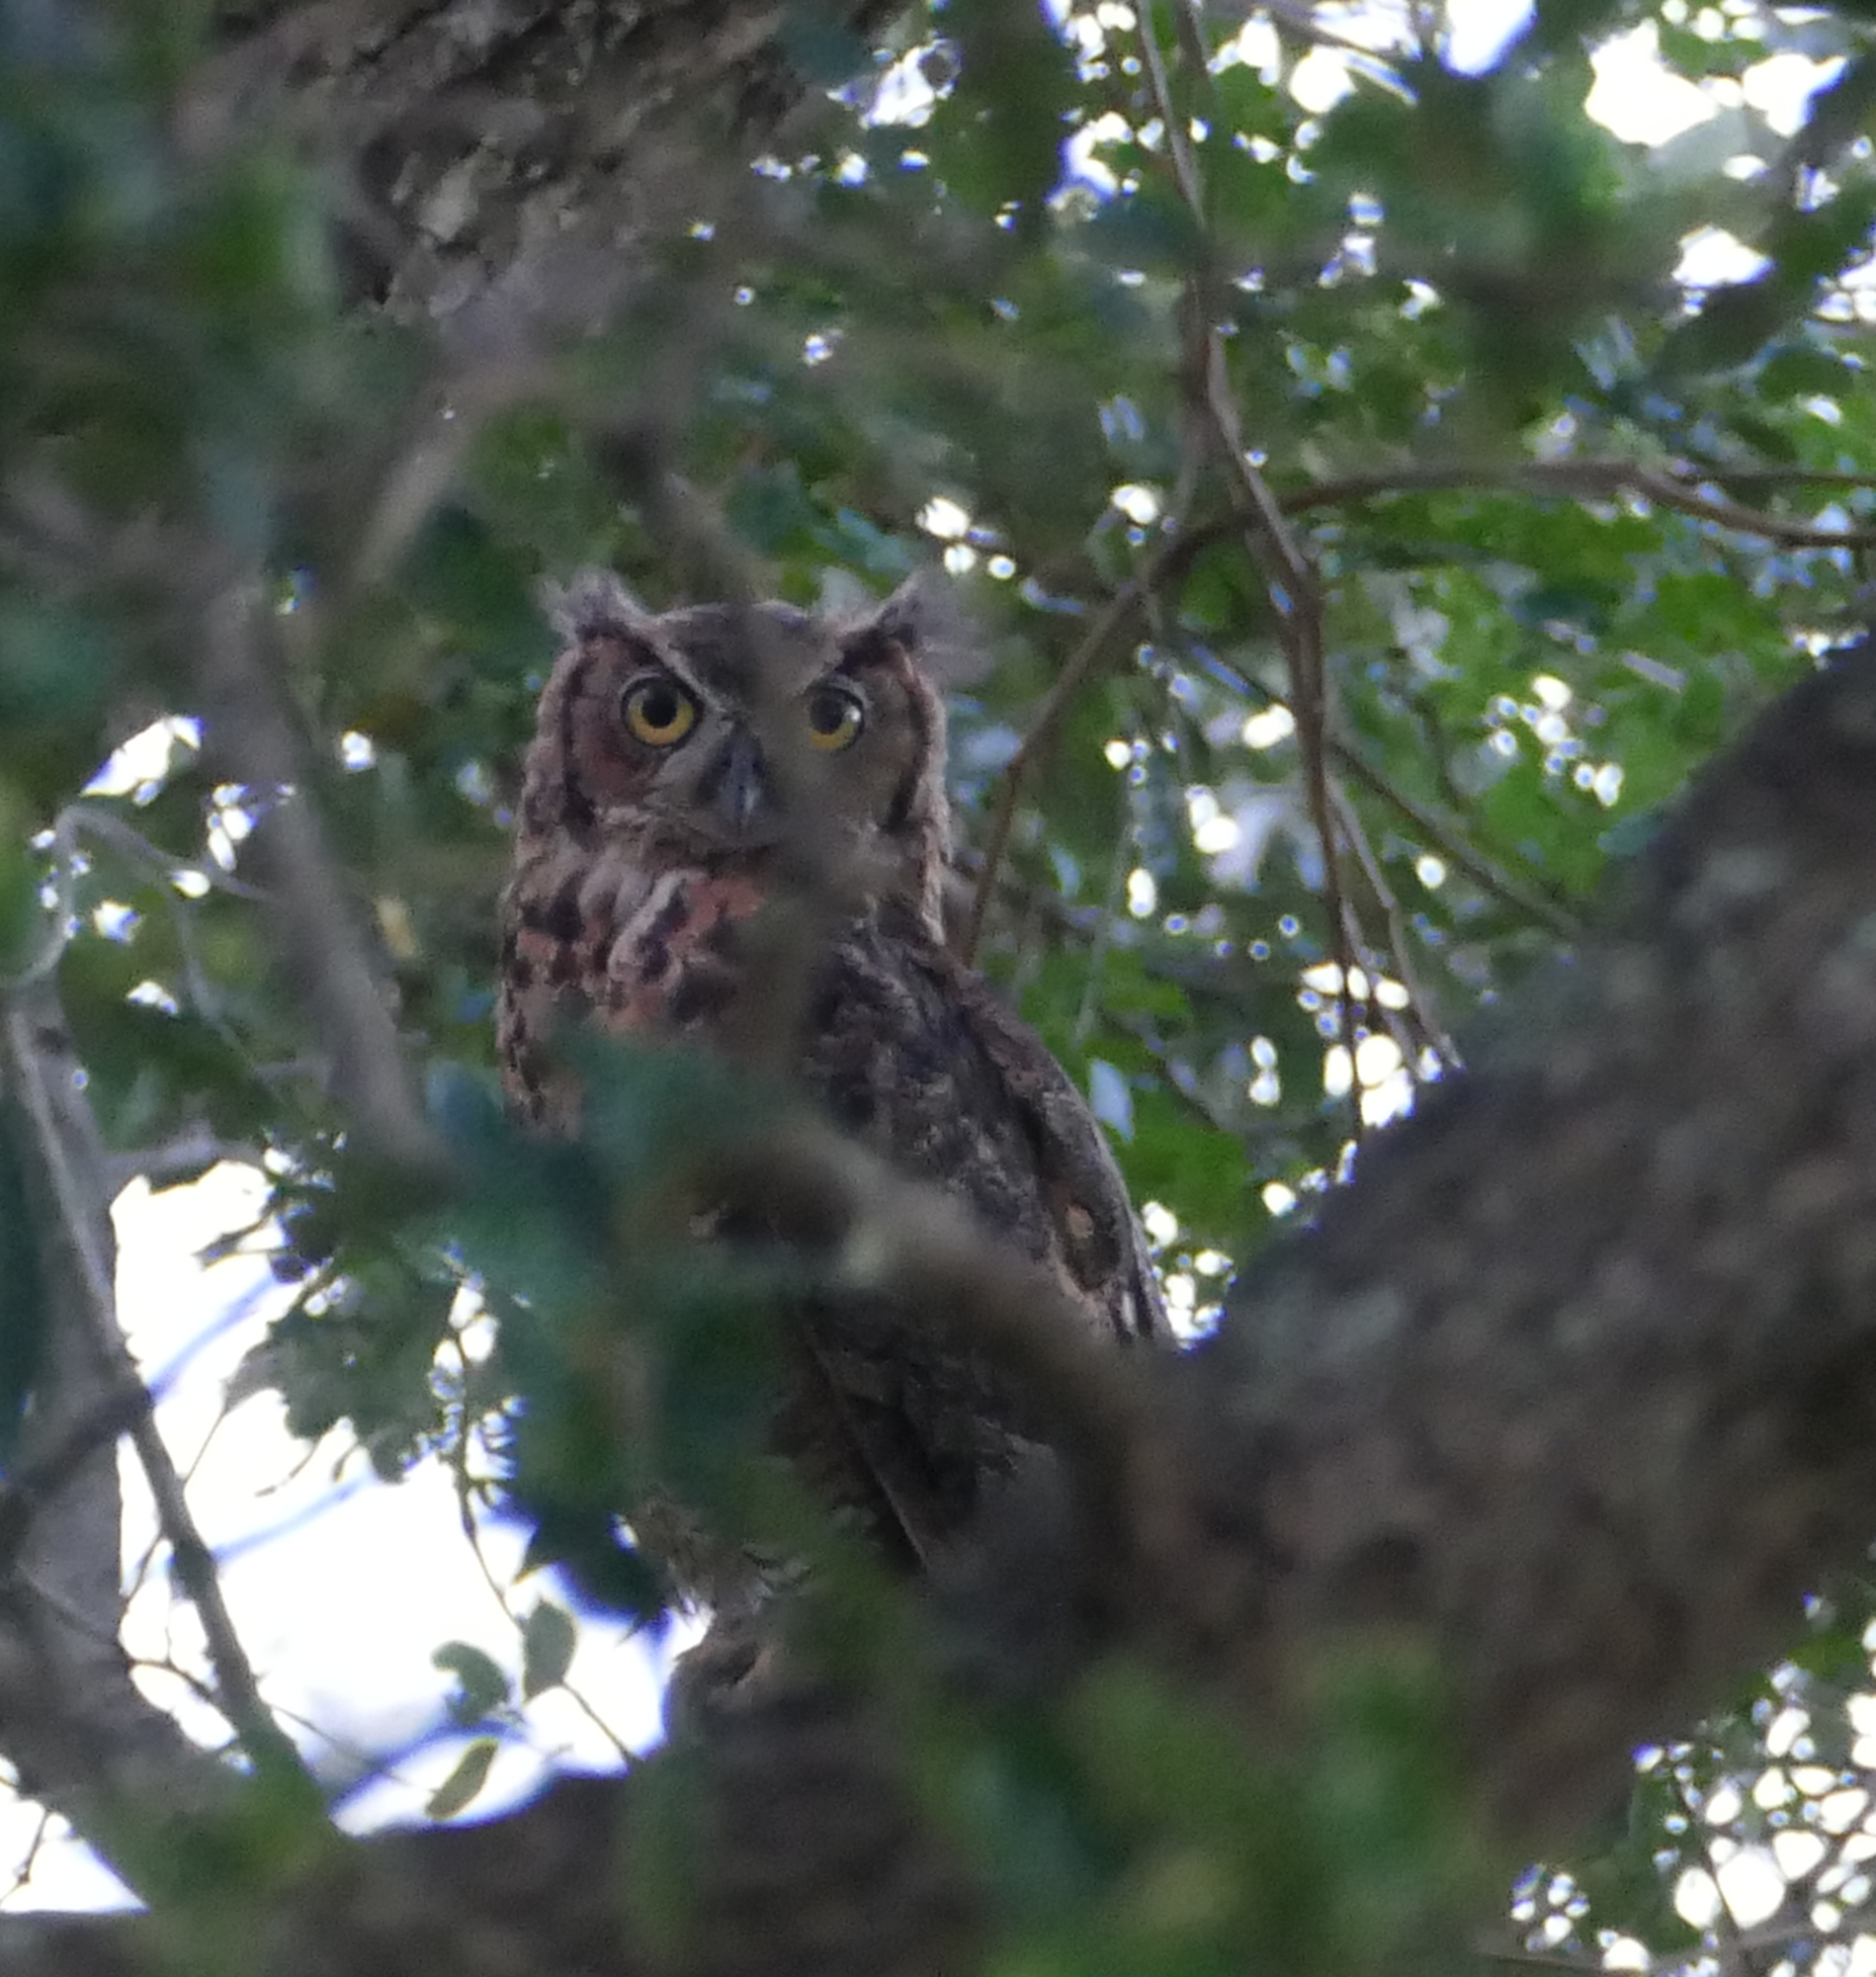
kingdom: Animalia
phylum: Chordata
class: Aves
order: Strigiformes
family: Strigidae
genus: Bubo
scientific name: Bubo virginianus
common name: Great horned owl
